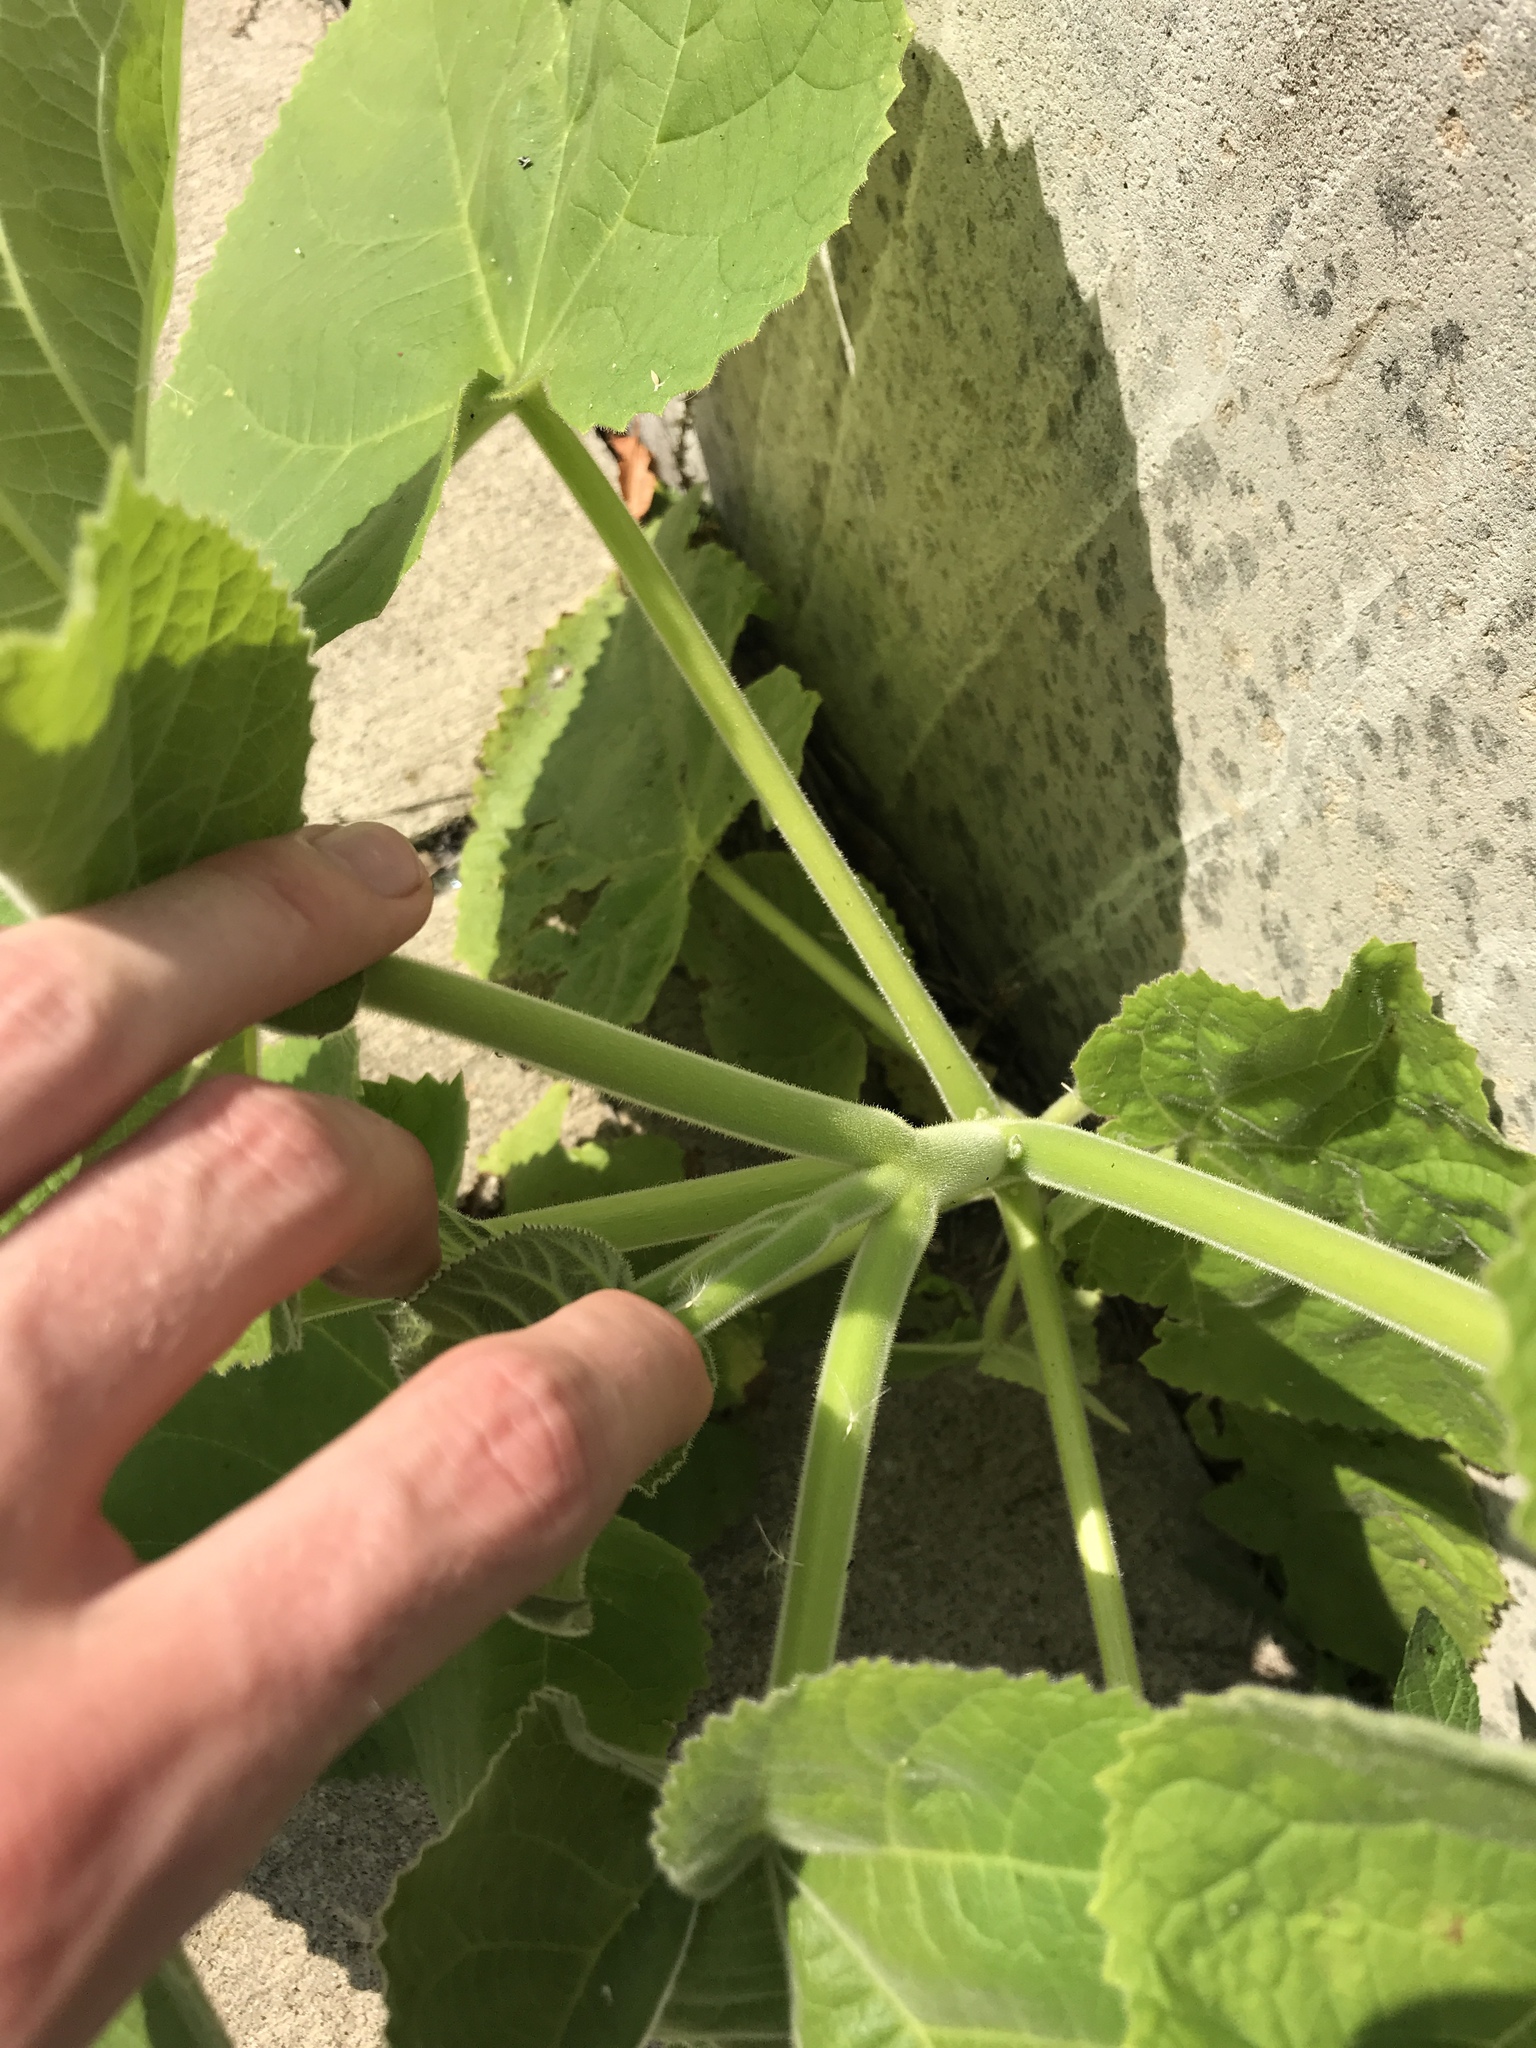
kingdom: Plantae
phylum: Tracheophyta
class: Magnoliopsida
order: Lamiales
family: Paulowniaceae
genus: Paulownia
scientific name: Paulownia tomentosa
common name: Foxglove-tree
